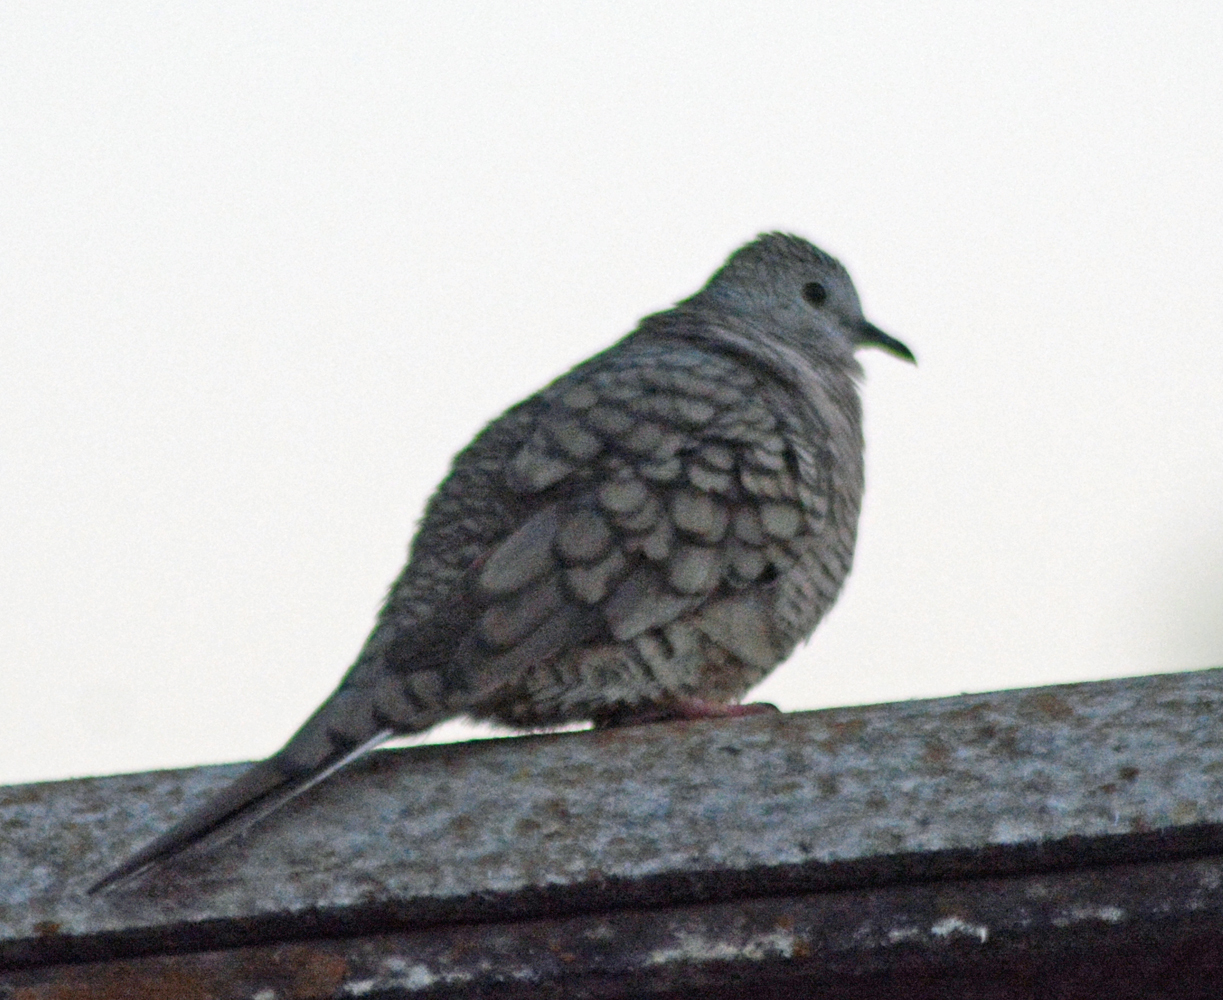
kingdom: Animalia
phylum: Chordata
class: Aves
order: Columbiformes
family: Columbidae
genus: Columbina
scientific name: Columbina inca
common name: Inca dove
